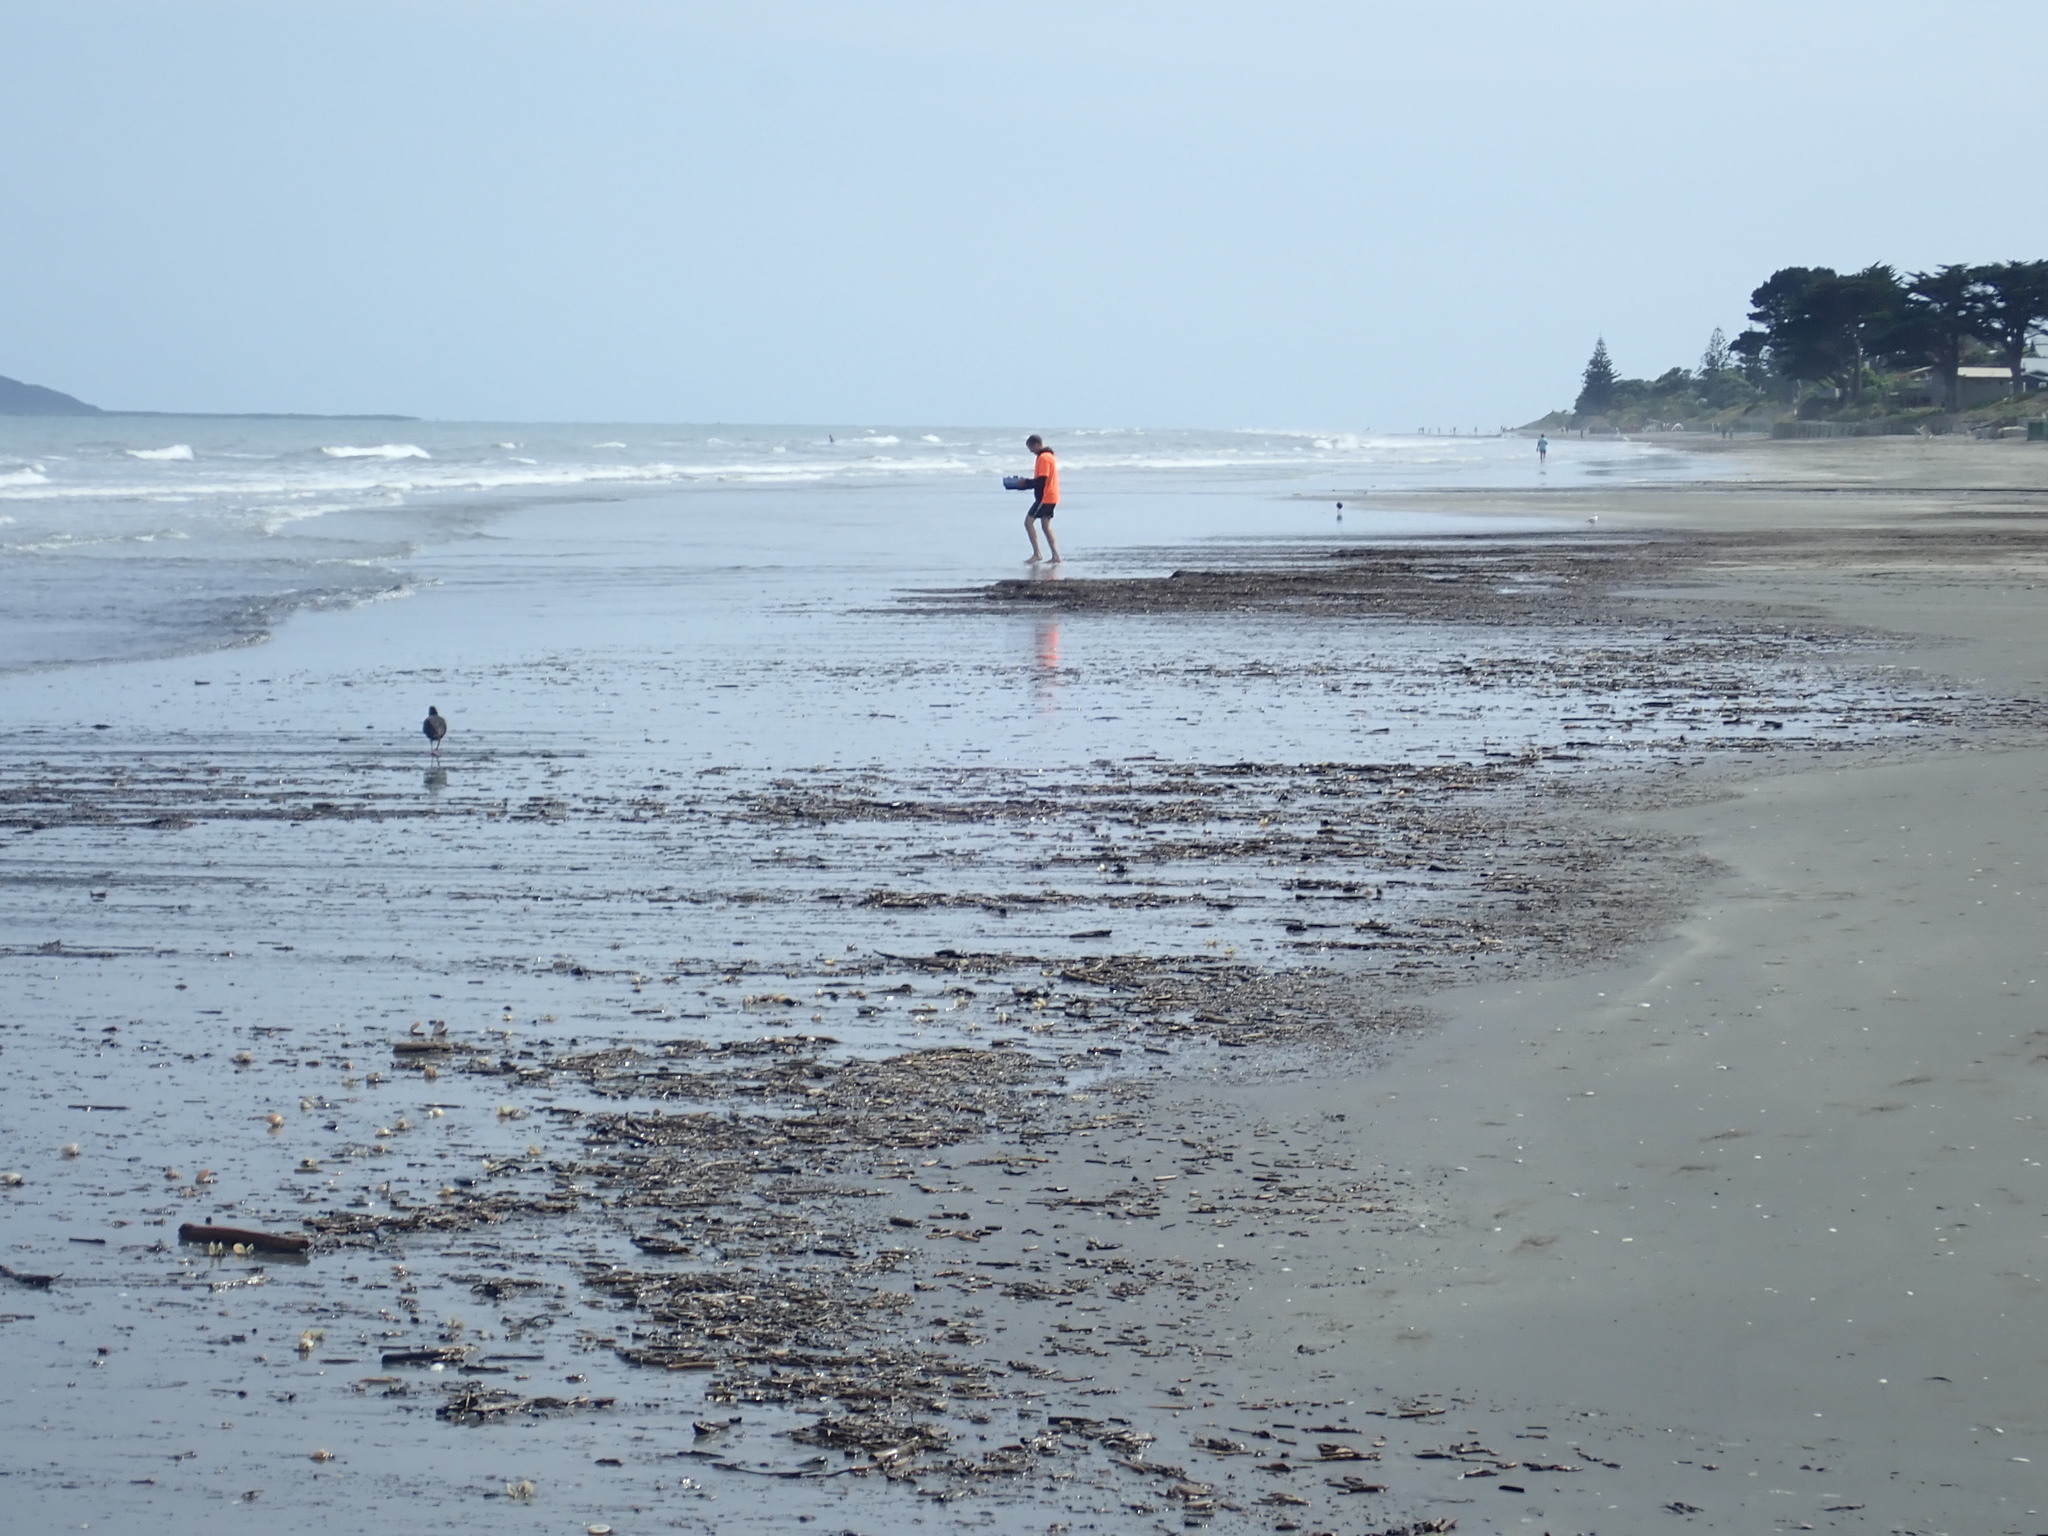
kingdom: Animalia
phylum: Chordata
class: Aves
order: Charadriiformes
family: Haematopodidae
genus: Haematopus
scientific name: Haematopus unicolor
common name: Variable oystercatcher
